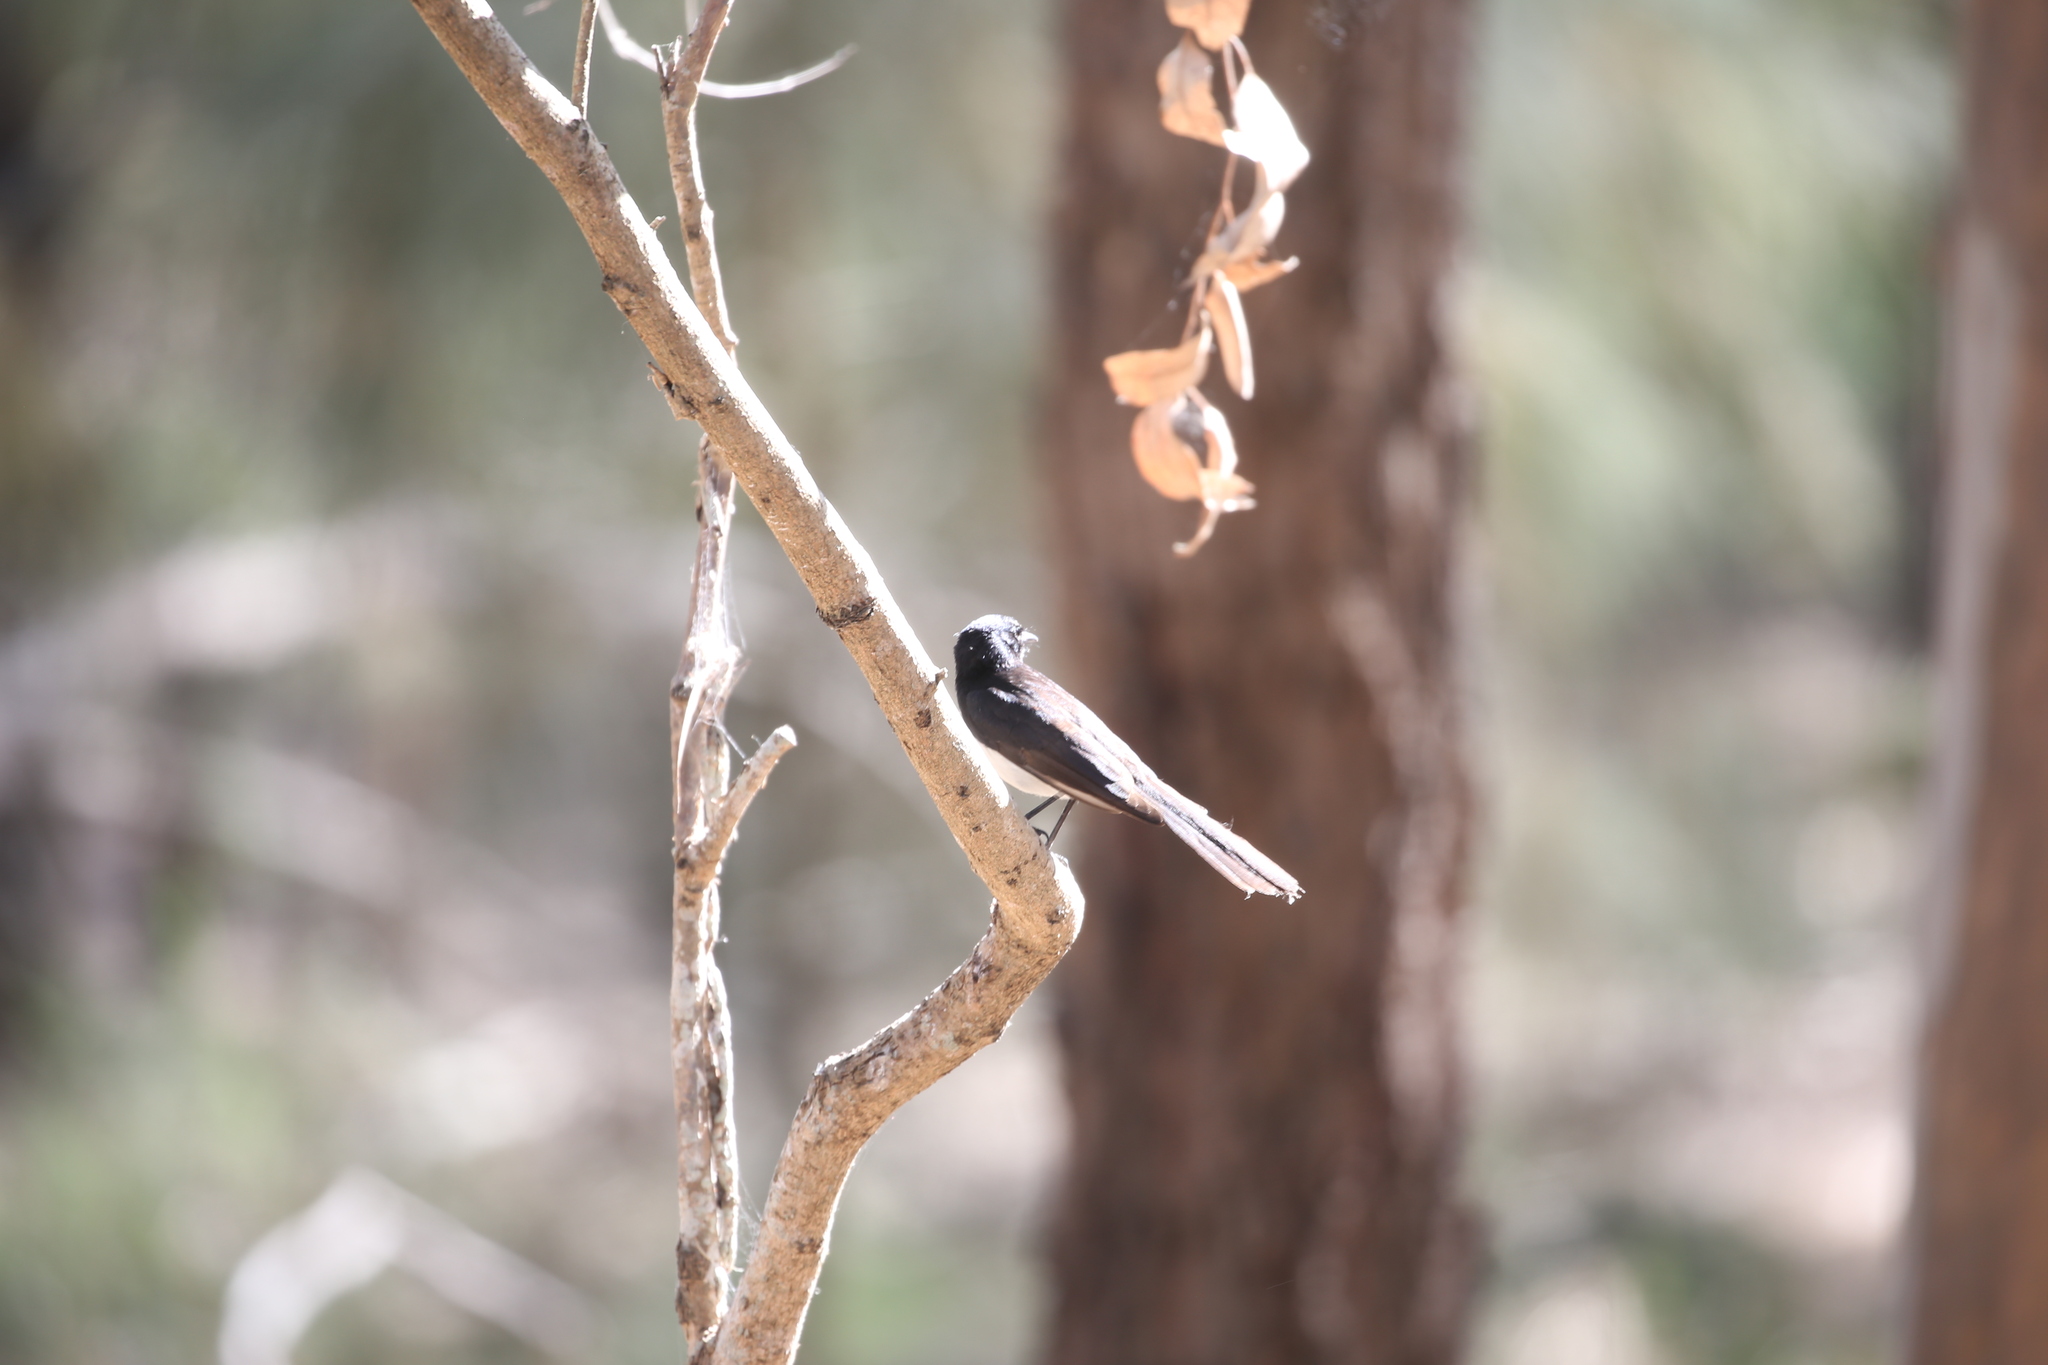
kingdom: Animalia
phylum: Chordata
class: Aves
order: Passeriformes
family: Rhipiduridae
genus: Rhipidura
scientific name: Rhipidura leucophrys
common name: Willie wagtail
